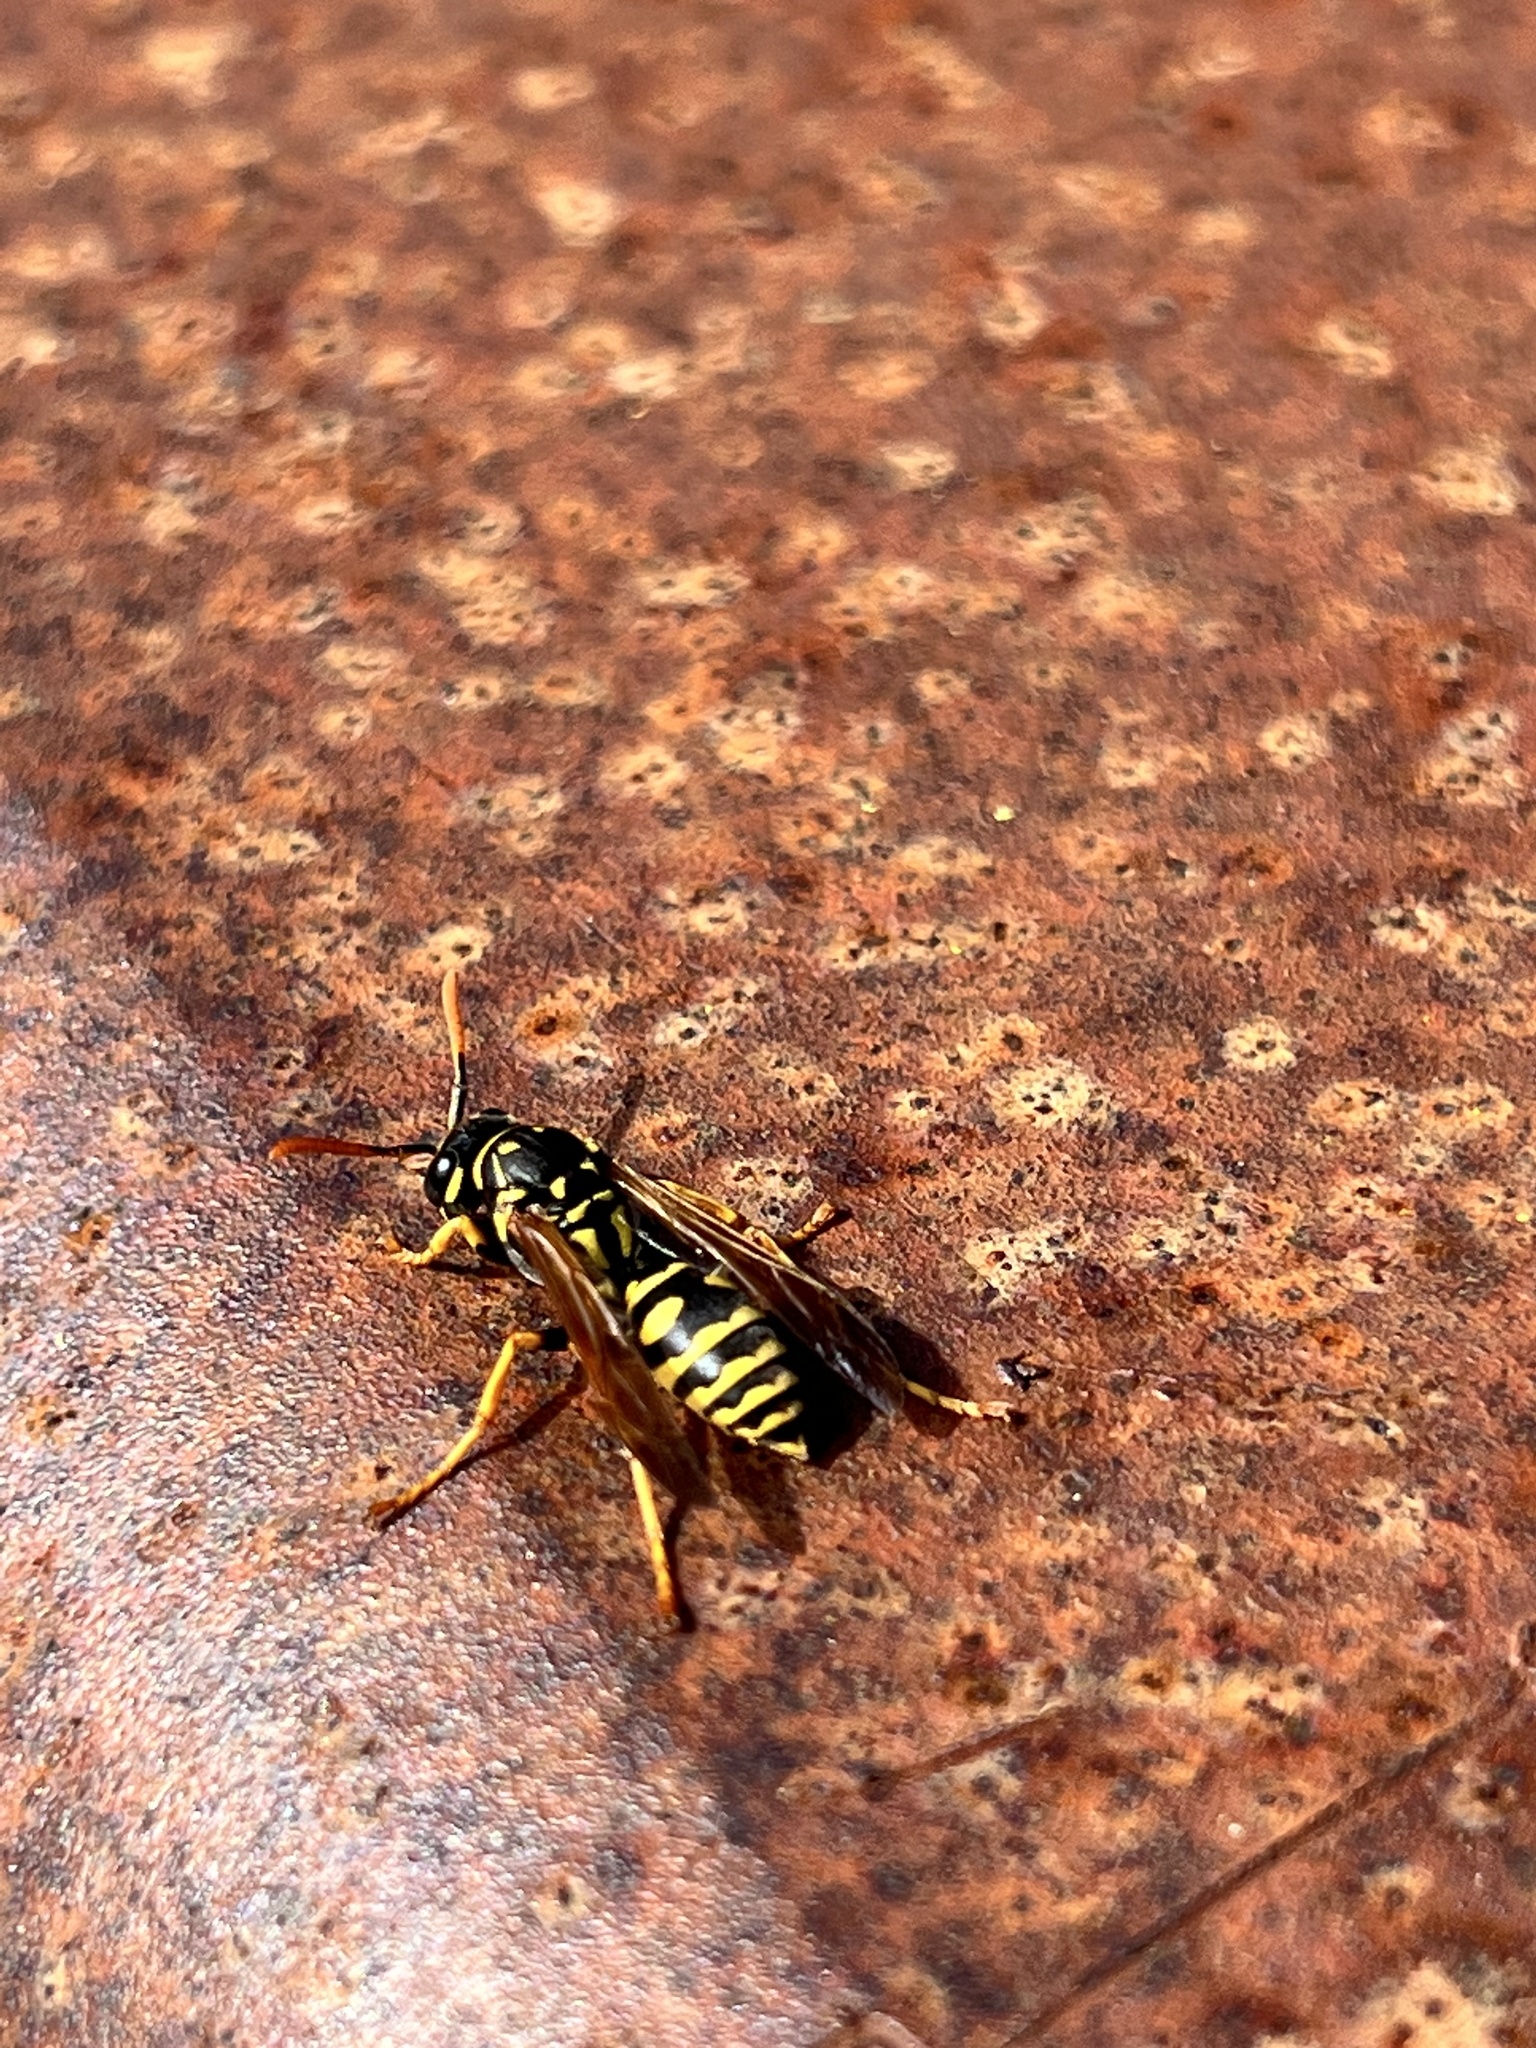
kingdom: Animalia
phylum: Arthropoda
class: Insecta
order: Hymenoptera
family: Eumenidae
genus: Polistes
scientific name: Polistes dominula
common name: Paper wasp
